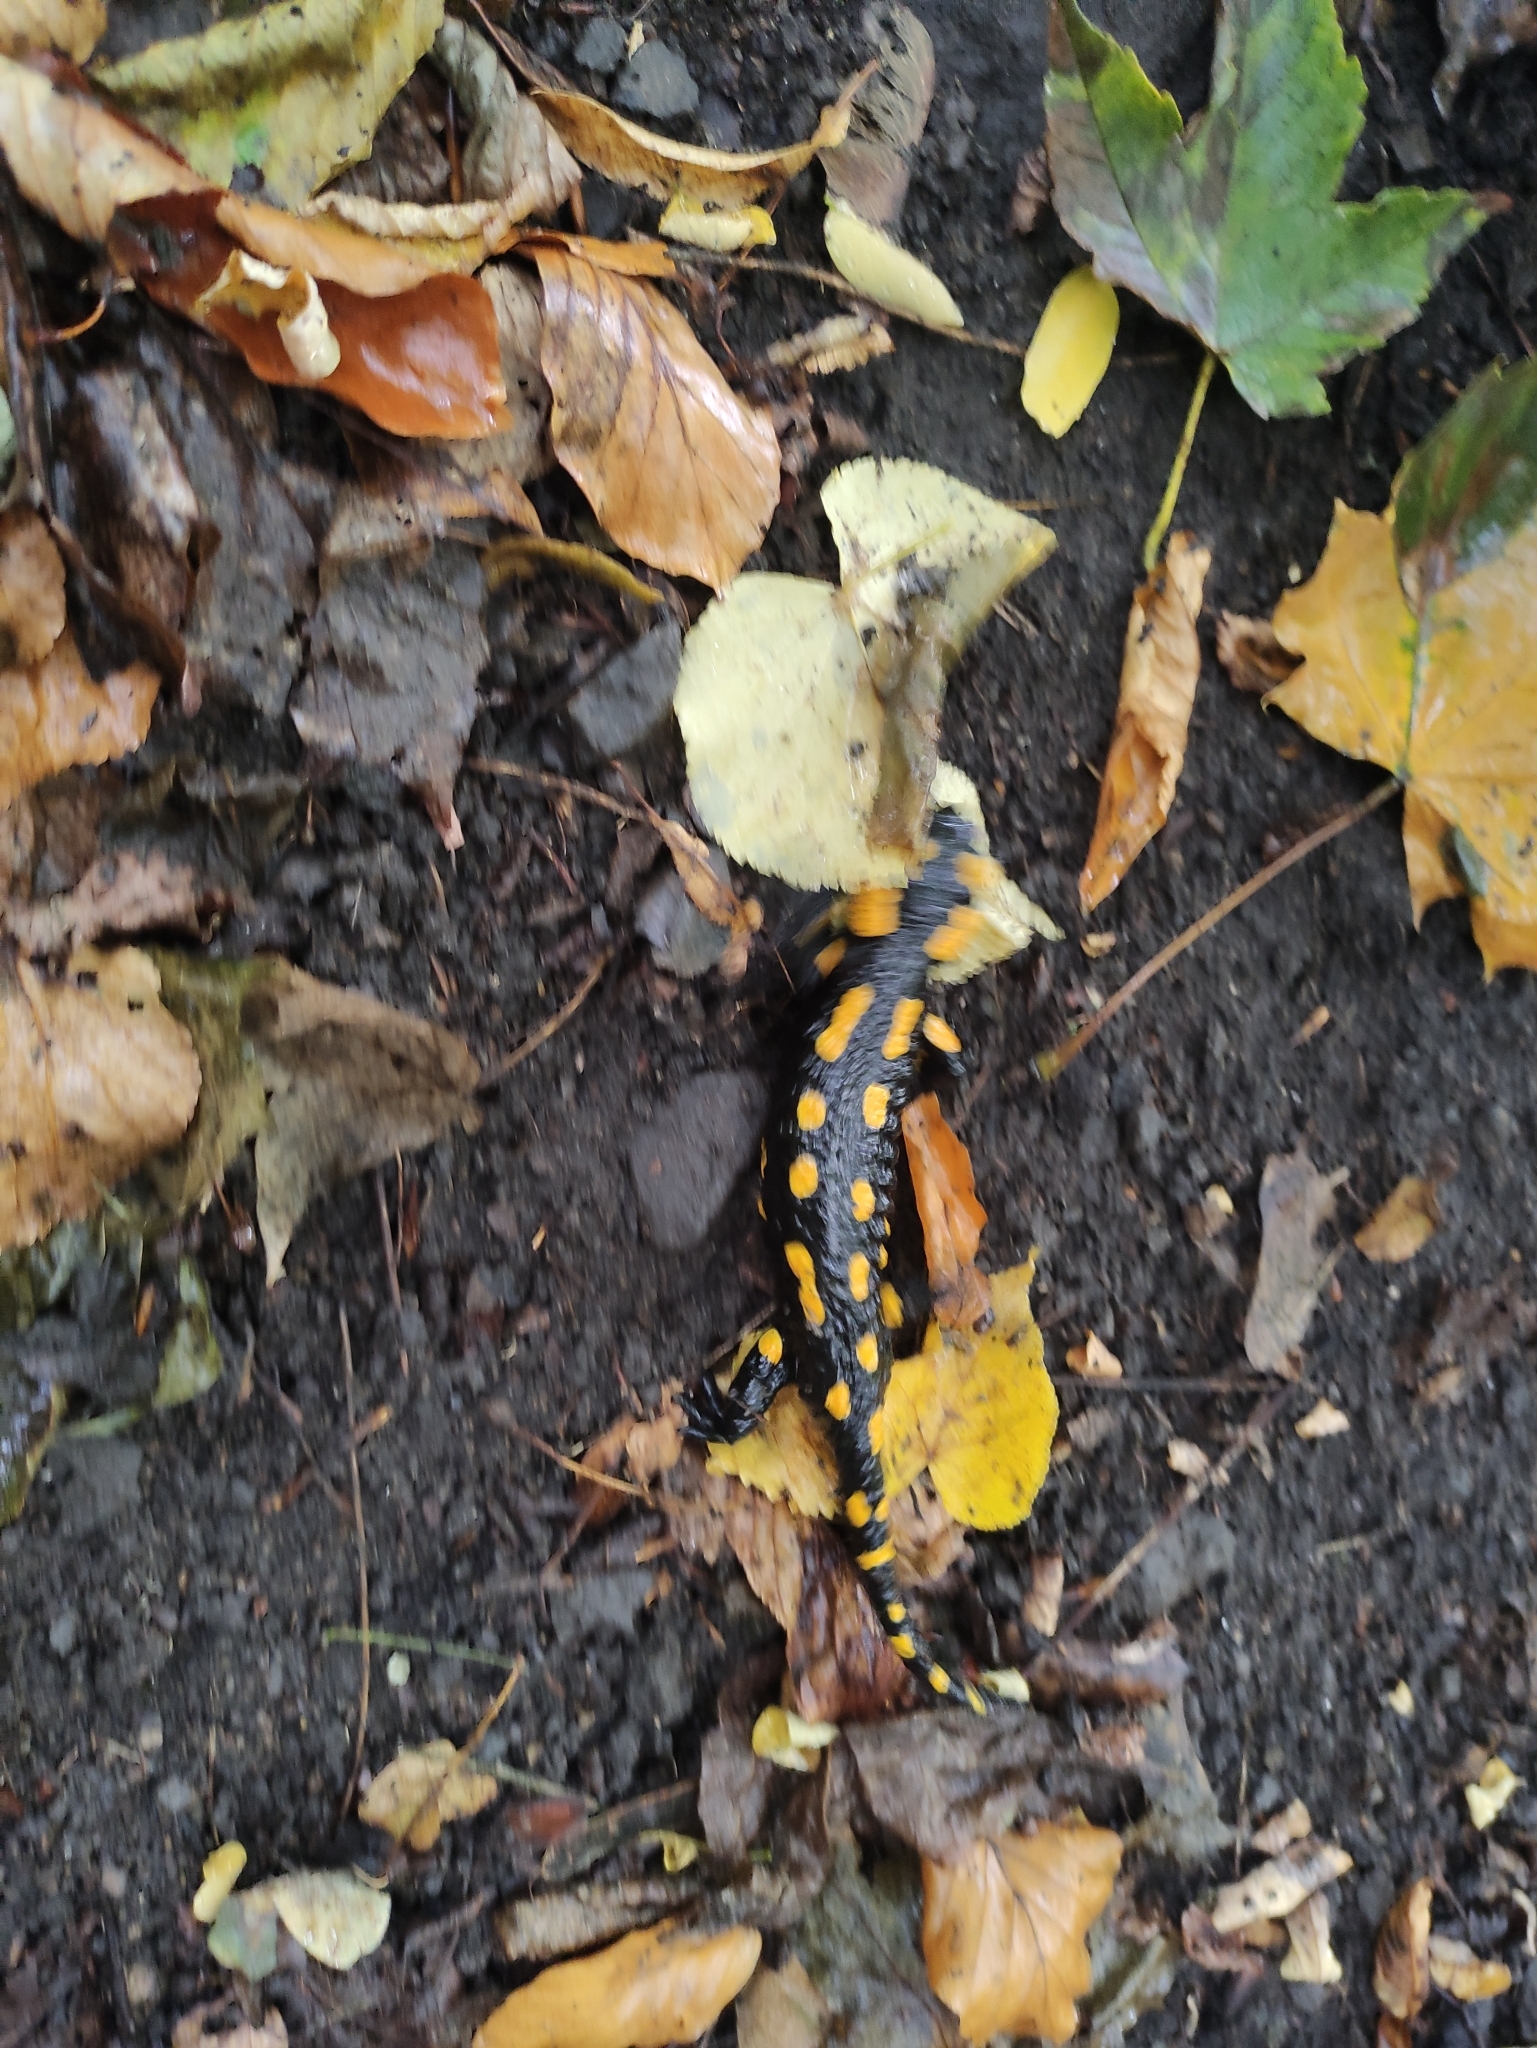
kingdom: Animalia
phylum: Chordata
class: Amphibia
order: Caudata
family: Salamandridae
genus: Salamandra
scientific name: Salamandra salamandra
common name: Fire salamander
